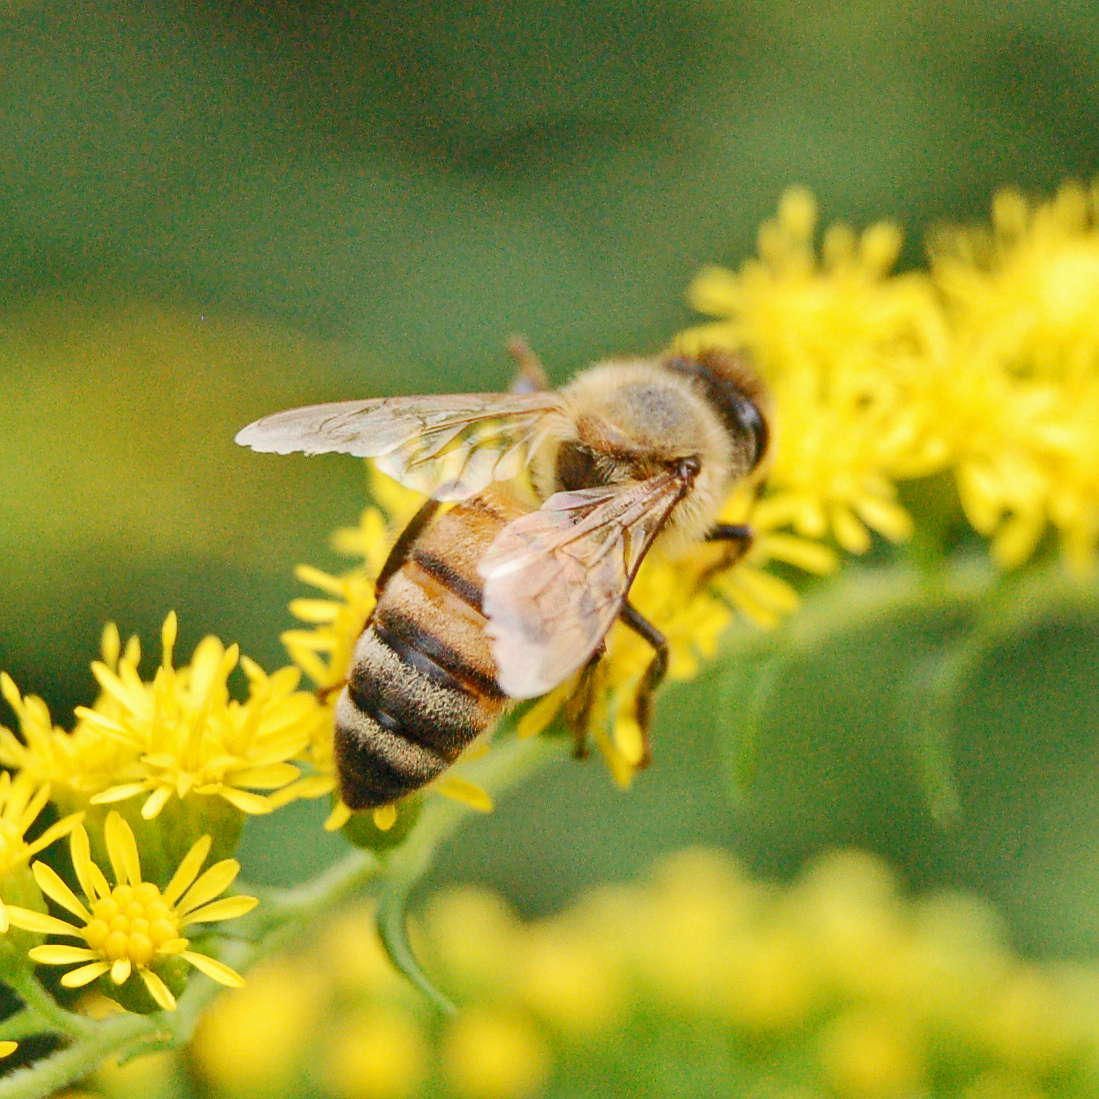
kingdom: Animalia
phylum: Arthropoda
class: Insecta
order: Hymenoptera
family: Apidae
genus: Apis
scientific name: Apis mellifera
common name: Honey bee
